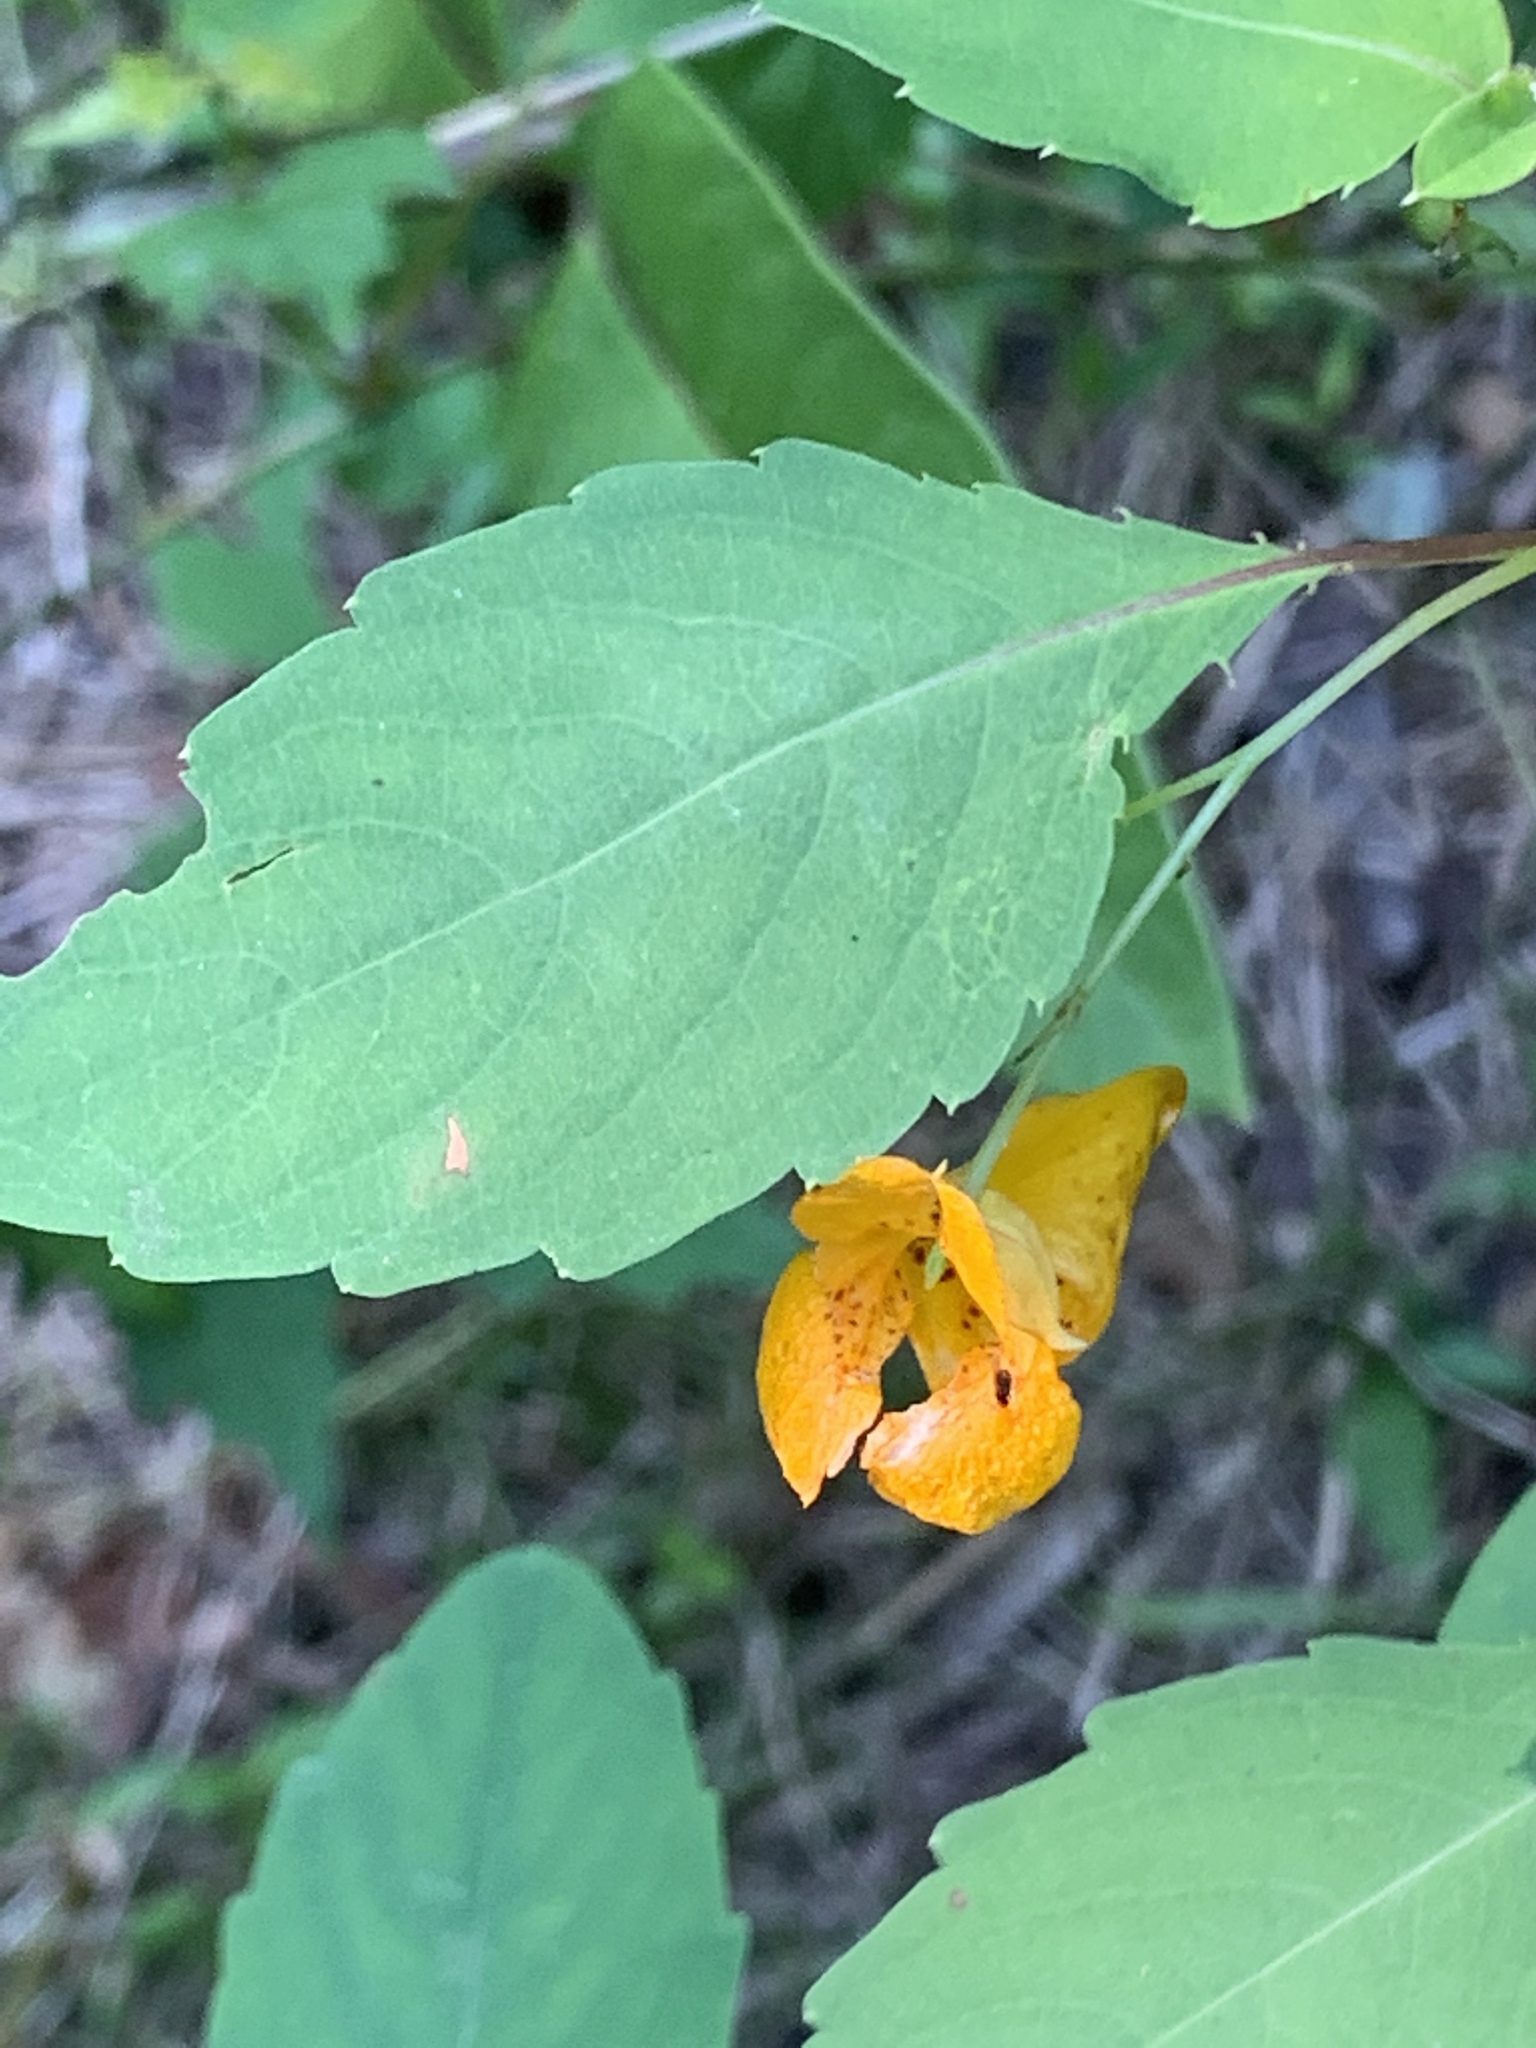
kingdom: Plantae
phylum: Tracheophyta
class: Magnoliopsida
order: Ericales
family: Balsaminaceae
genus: Impatiens
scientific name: Impatiens capensis
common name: Orange balsam
